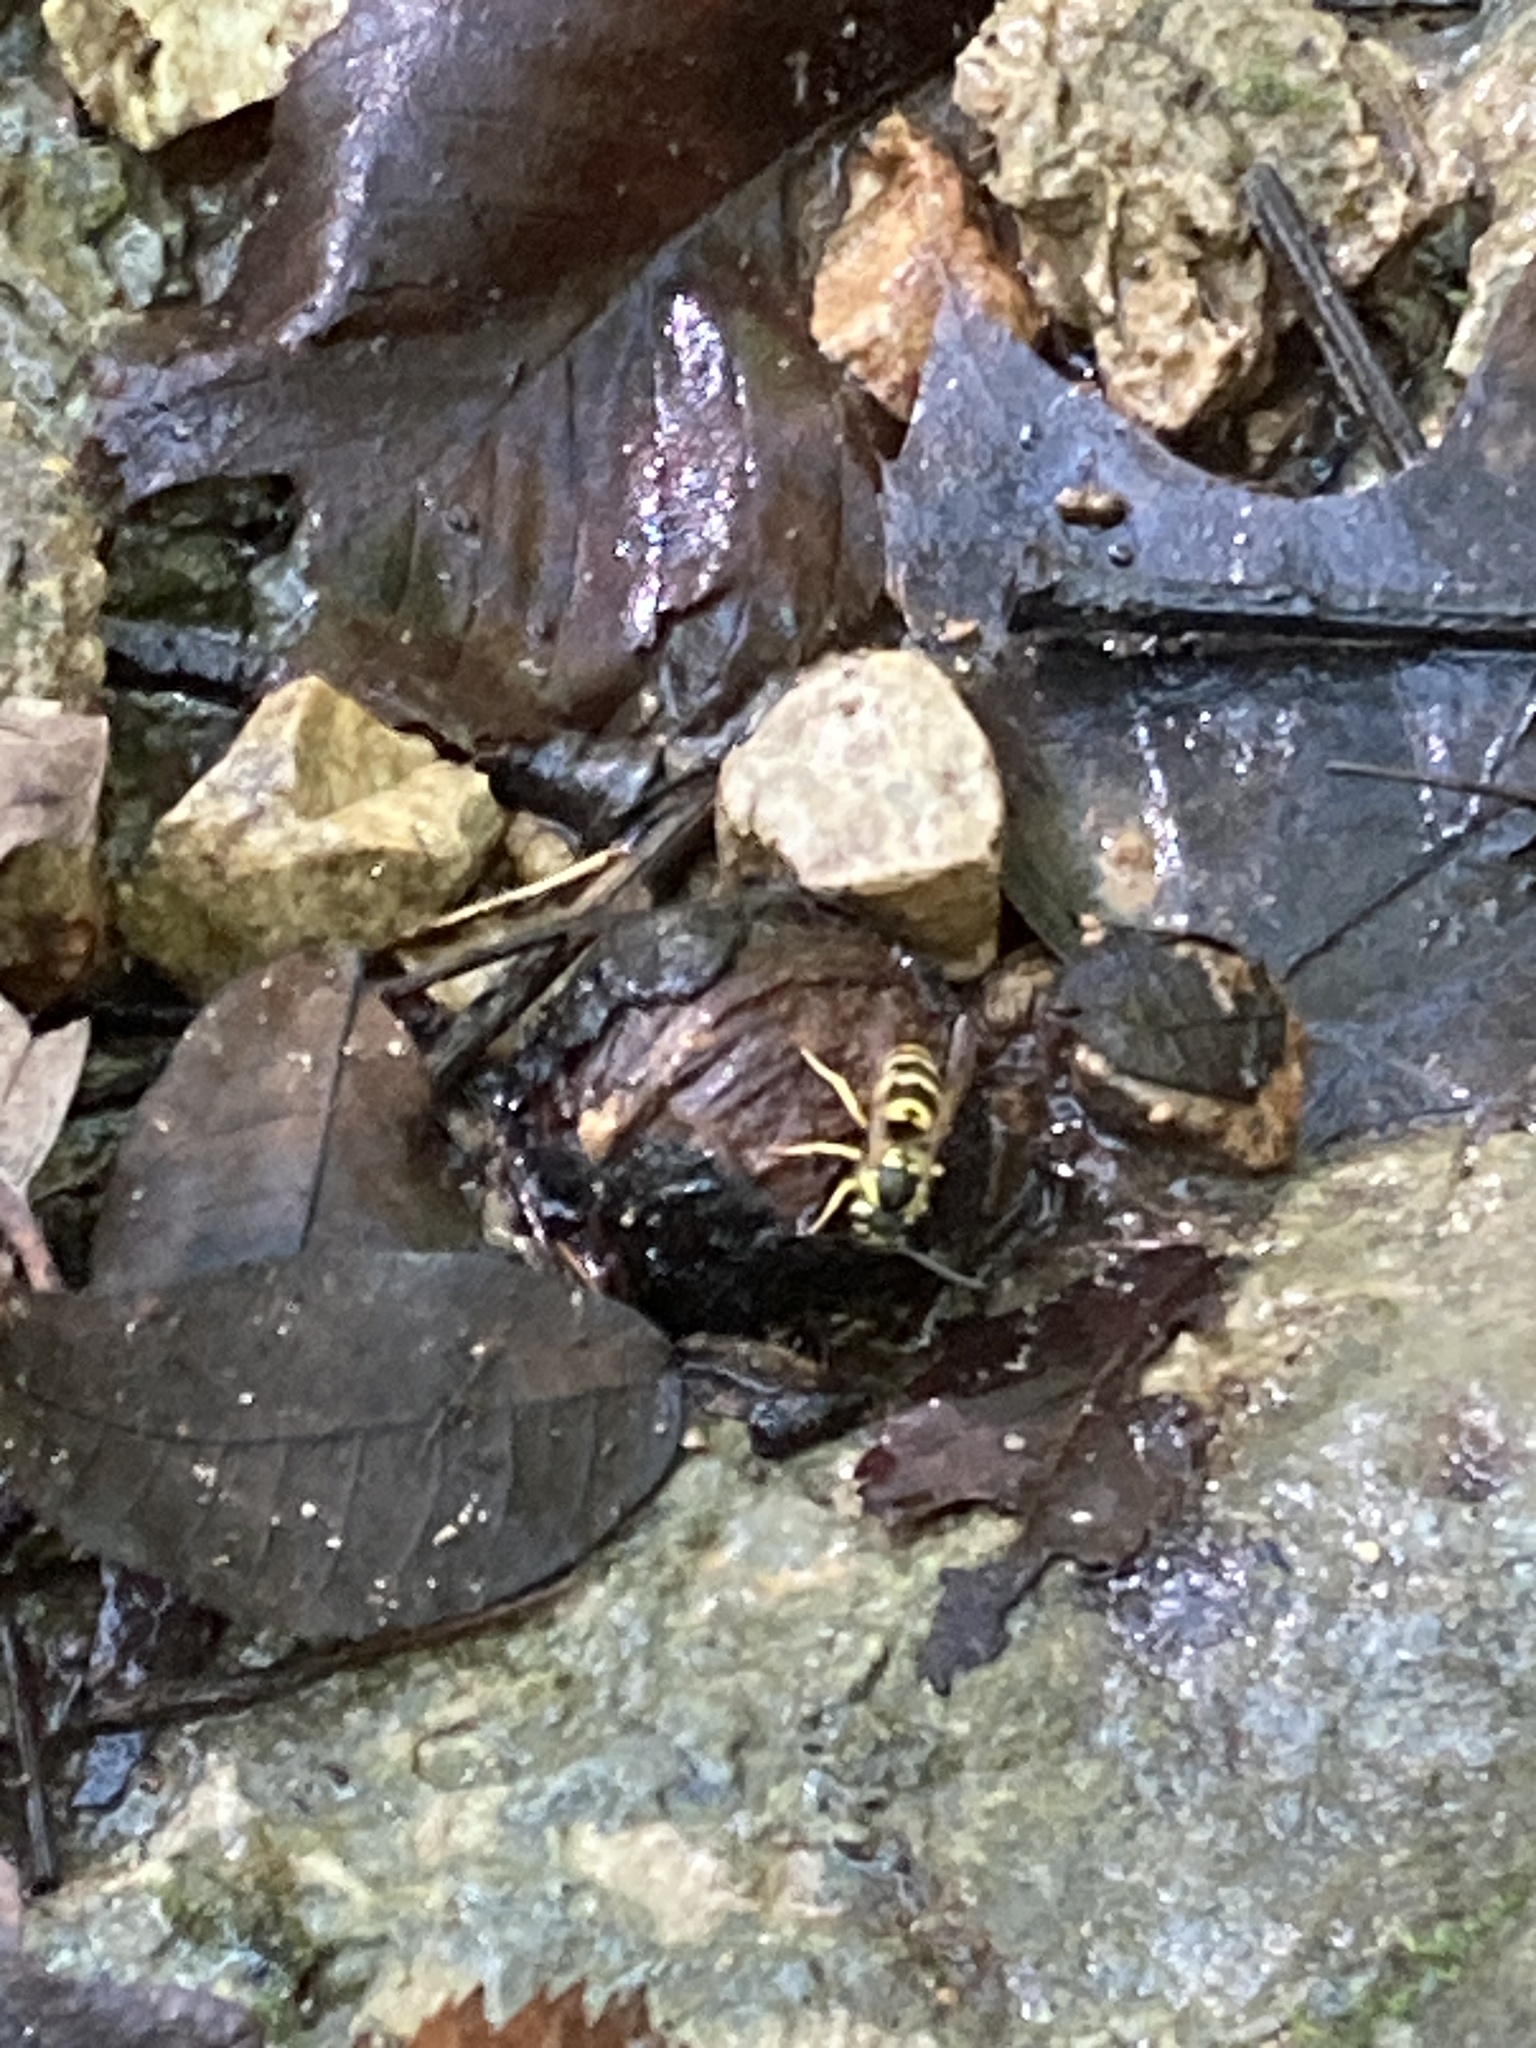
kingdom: Animalia
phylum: Arthropoda
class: Insecta
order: Hymenoptera
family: Vespidae
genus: Vespula
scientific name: Vespula maculifrons
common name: Eastern yellowjacket
